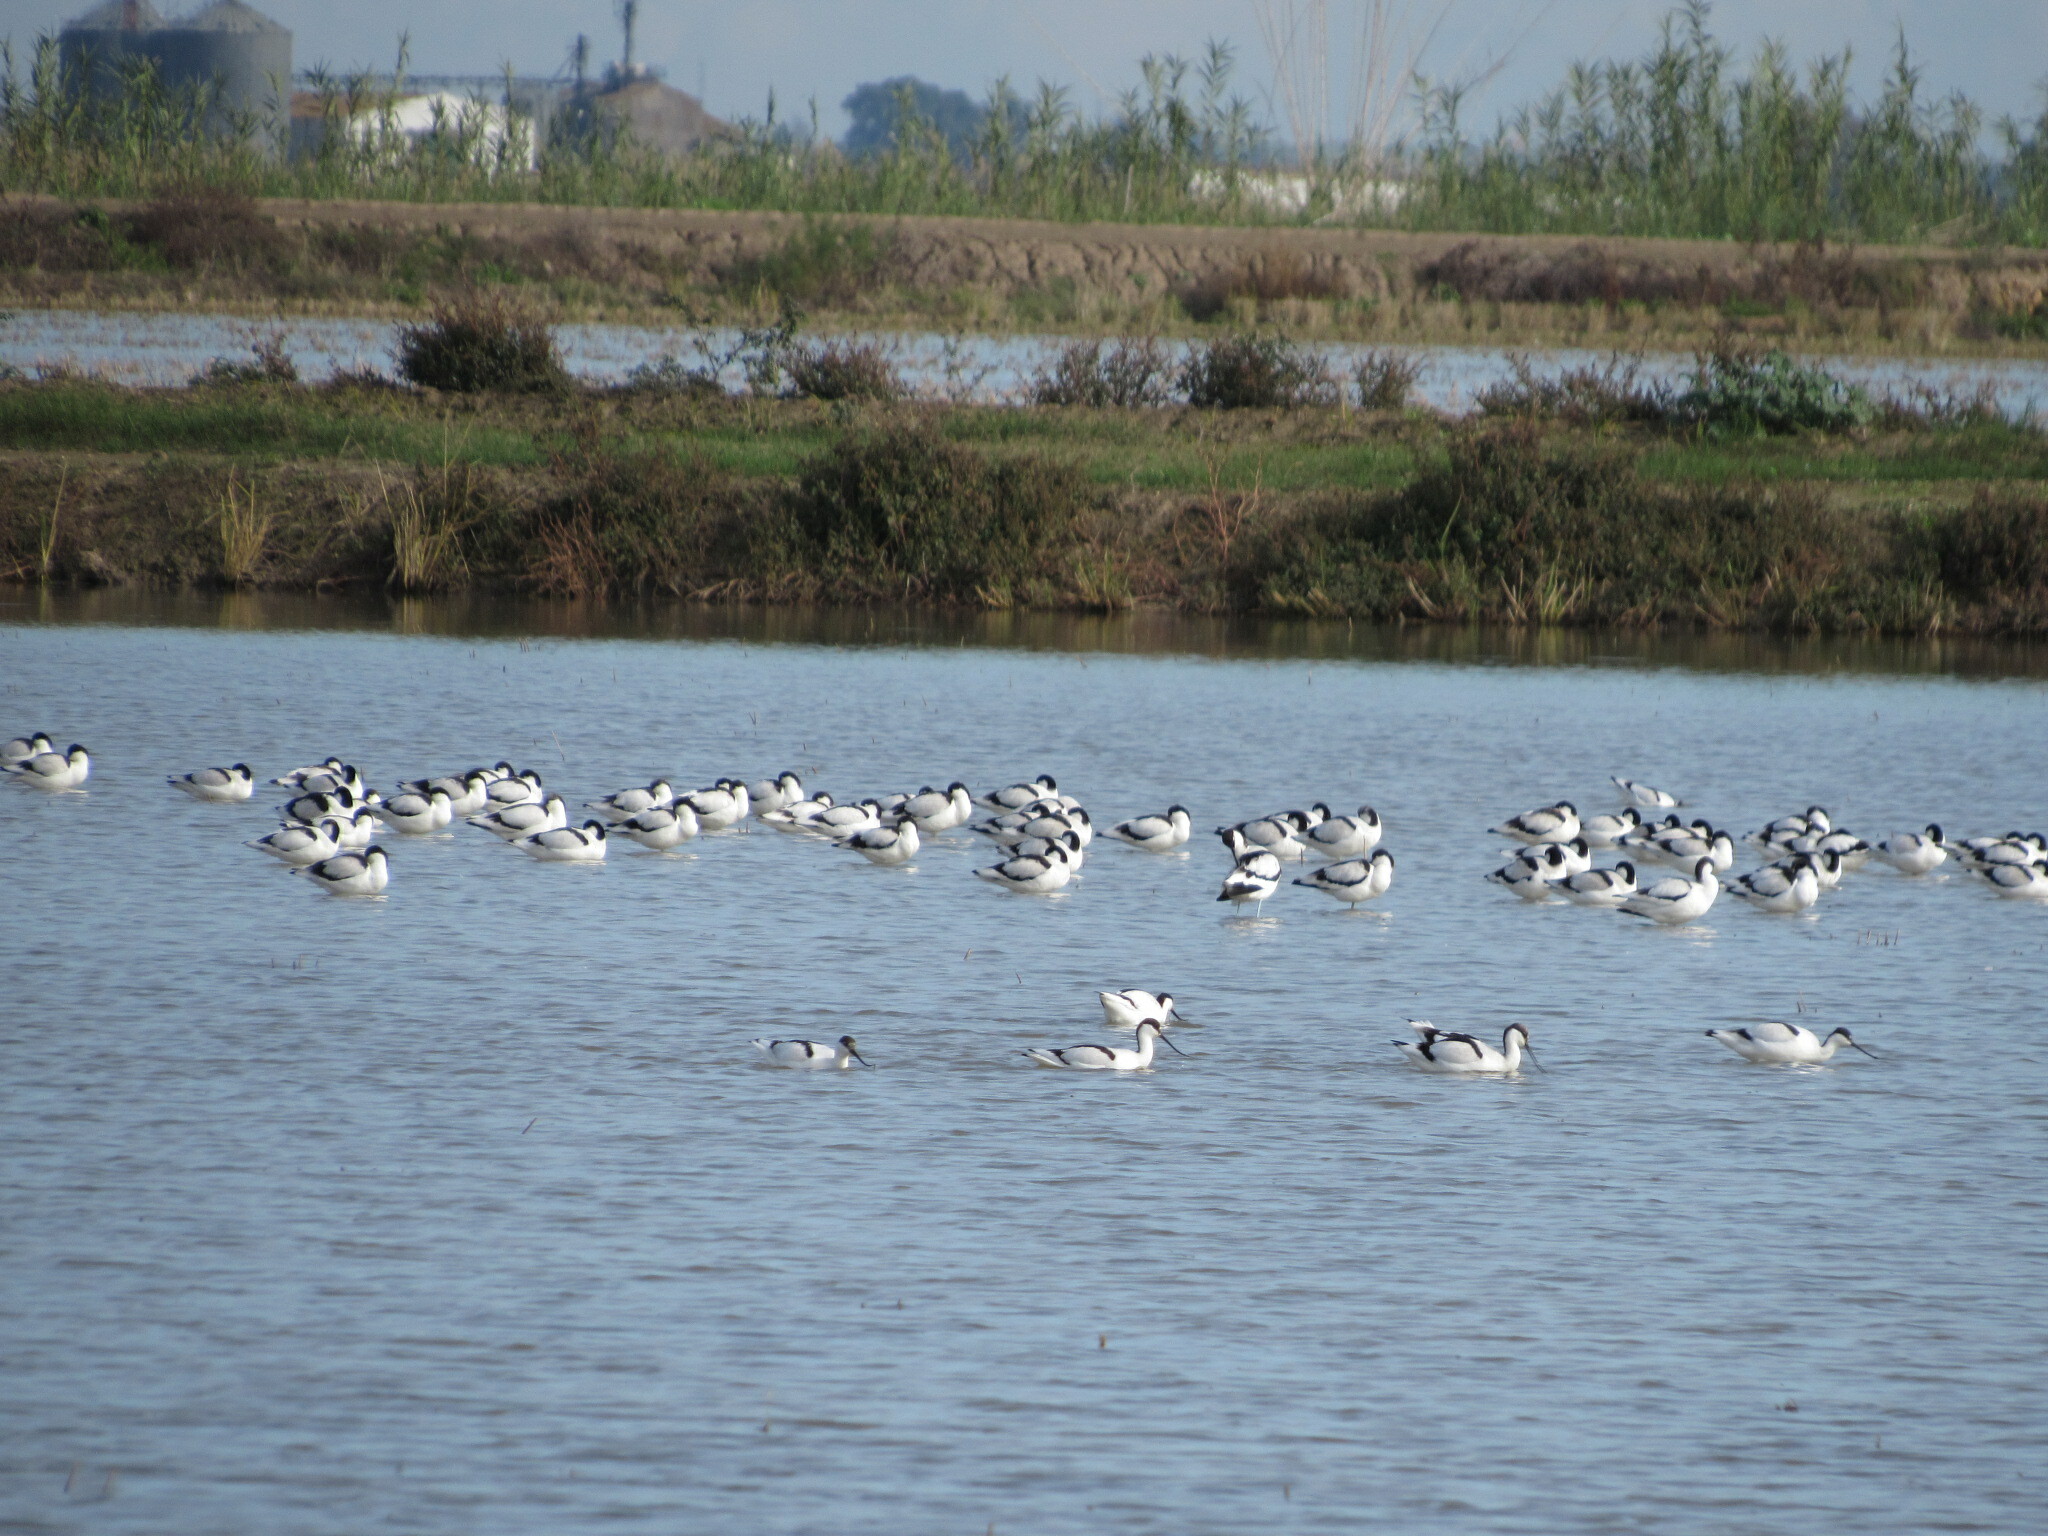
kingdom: Animalia
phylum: Chordata
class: Aves
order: Charadriiformes
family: Recurvirostridae
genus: Recurvirostra
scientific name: Recurvirostra avosetta
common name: Pied avocet
